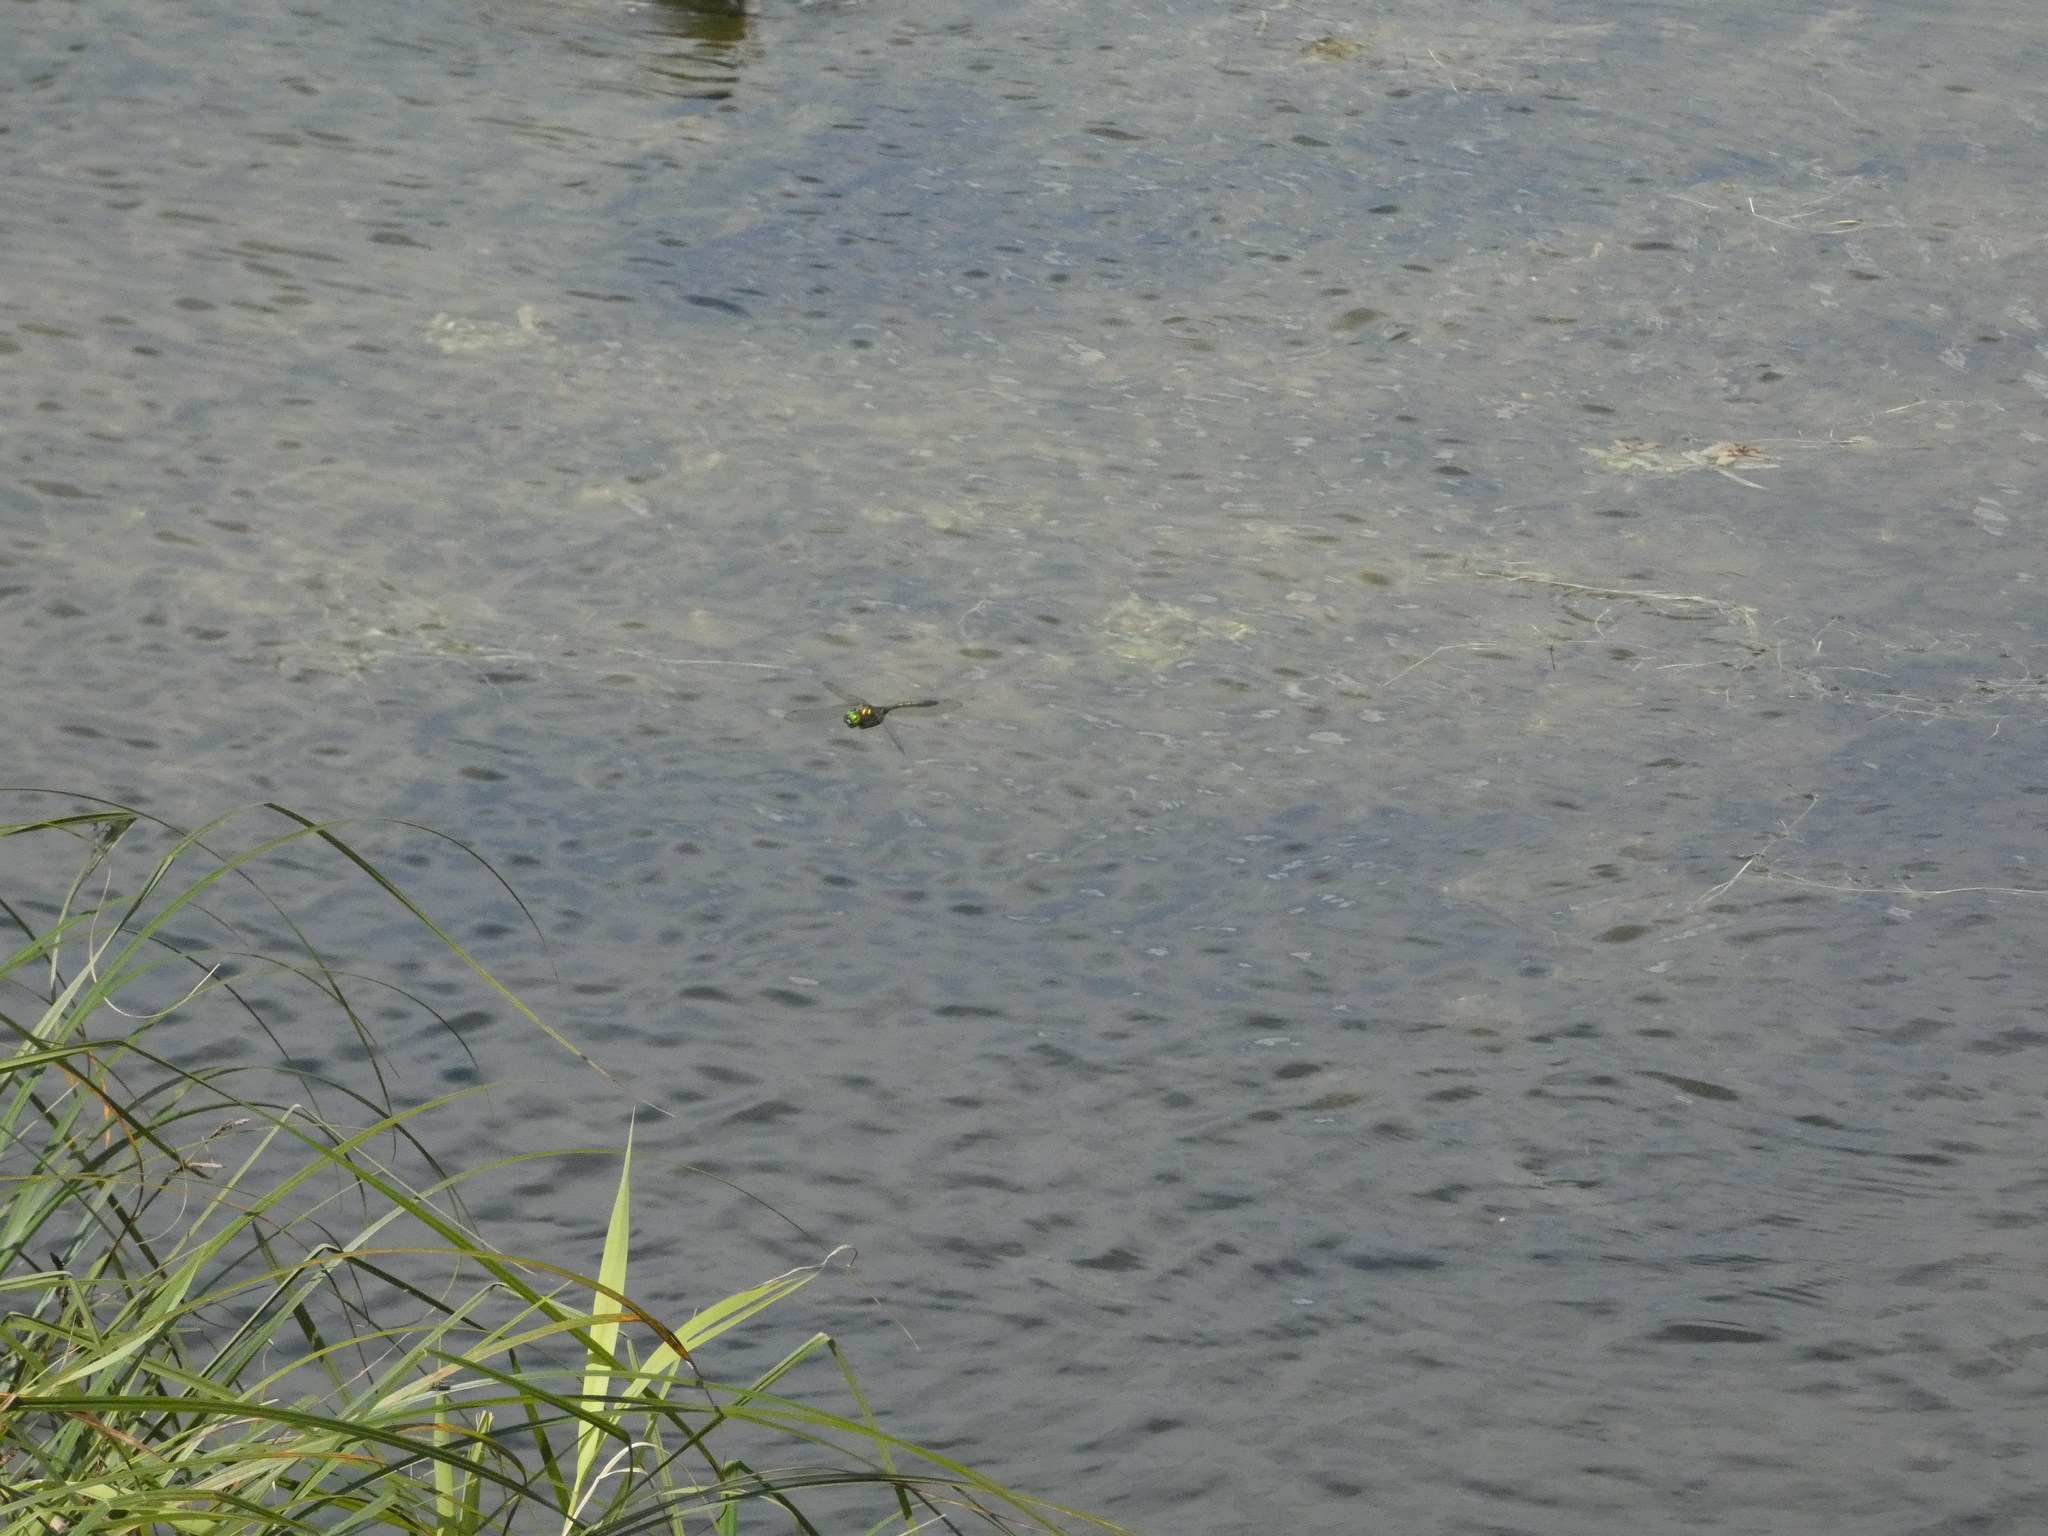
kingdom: Animalia
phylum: Arthropoda
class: Insecta
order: Odonata
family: Corduliidae
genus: Somatochlora
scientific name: Somatochlora metallica
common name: Brilliant emerald
